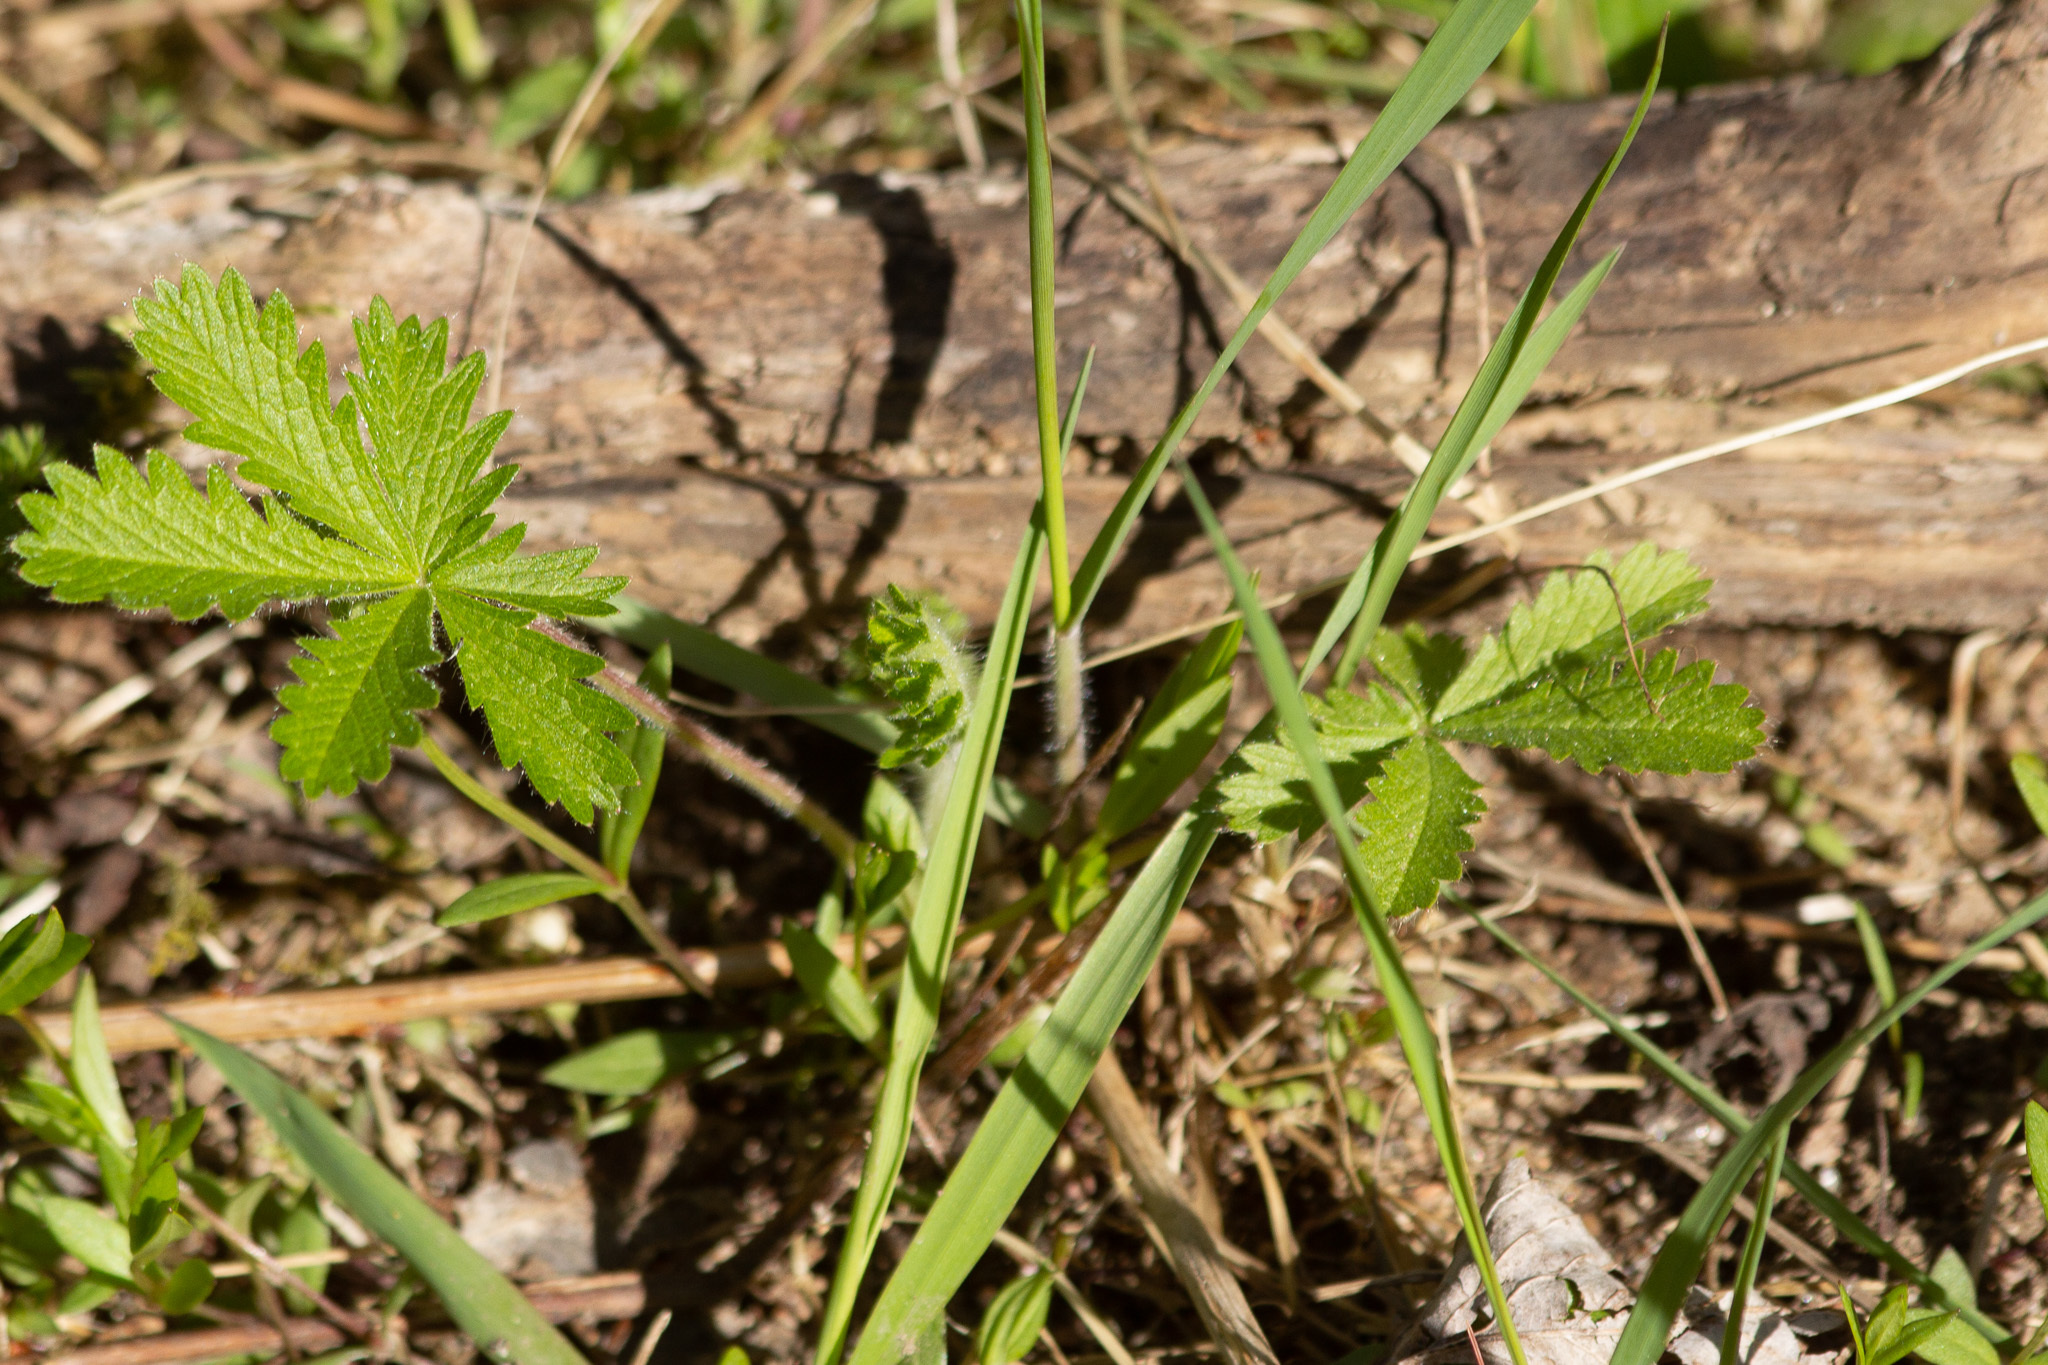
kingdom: Plantae
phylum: Tracheophyta
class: Magnoliopsida
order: Rosales
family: Rosaceae
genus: Potentilla
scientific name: Potentilla recta
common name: Sulphur cinquefoil
